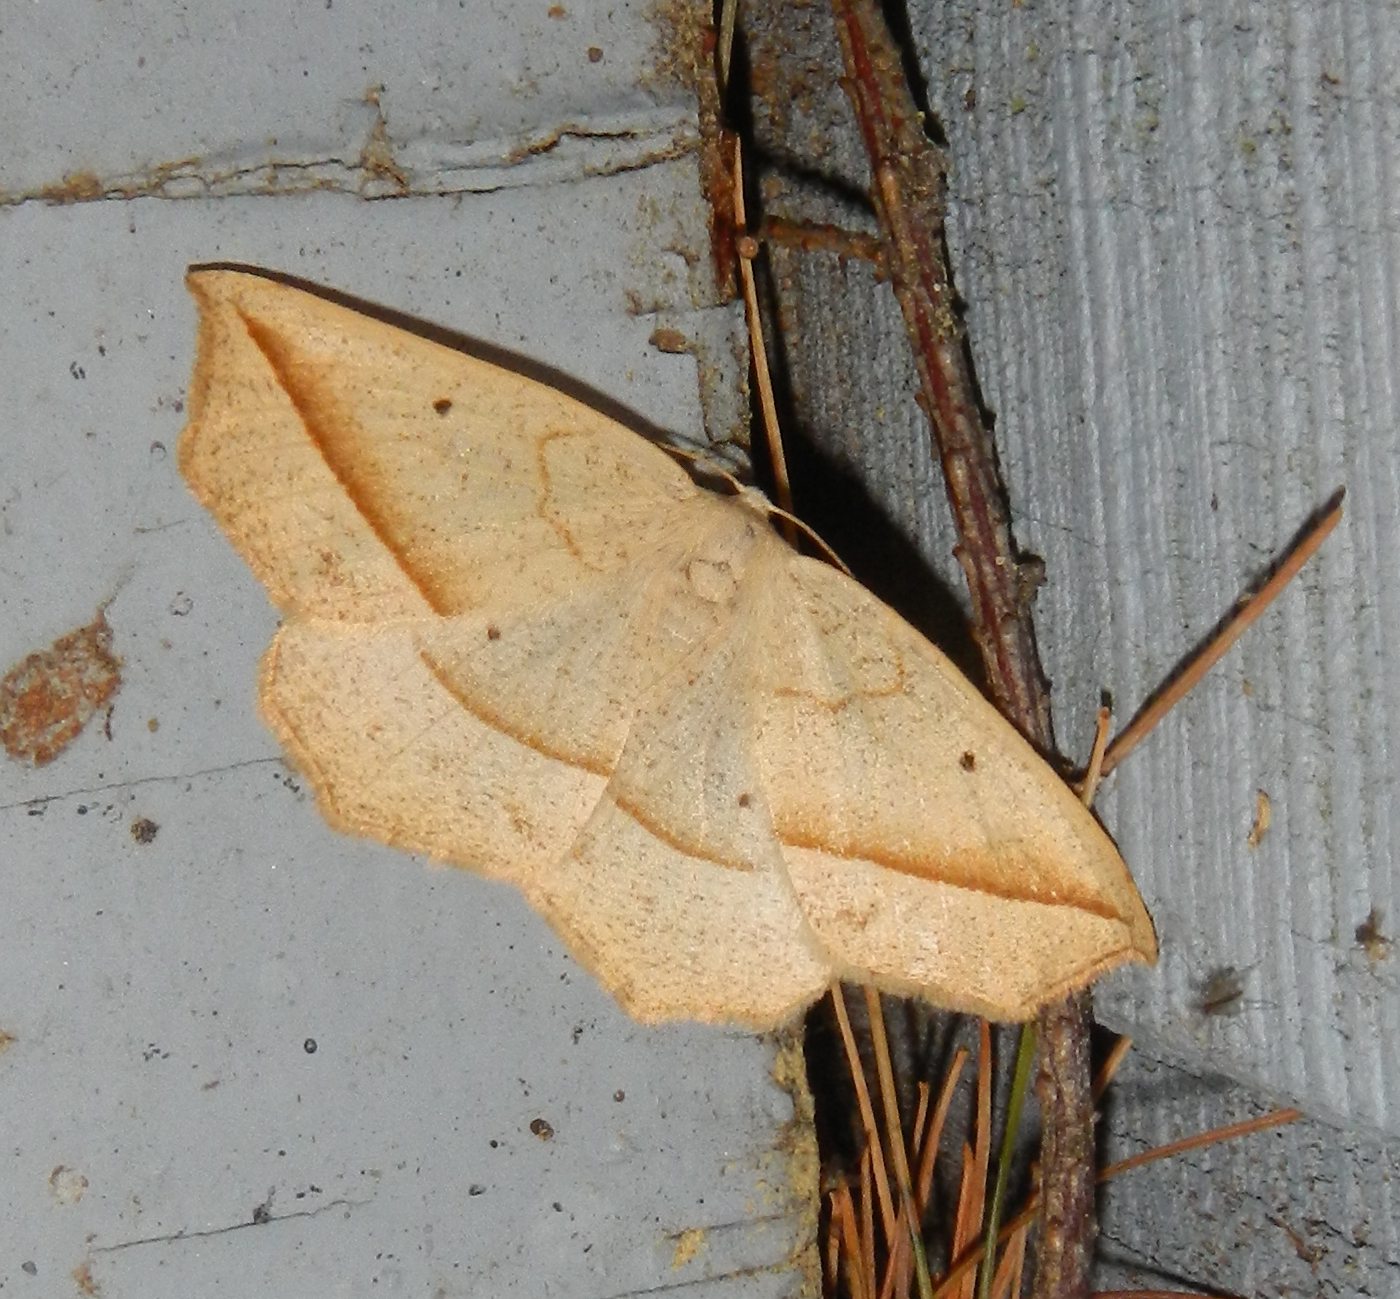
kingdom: Animalia
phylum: Arthropoda
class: Insecta
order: Lepidoptera
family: Geometridae
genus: Eusarca
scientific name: Eusarca confusaria
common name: Confused eusarca
